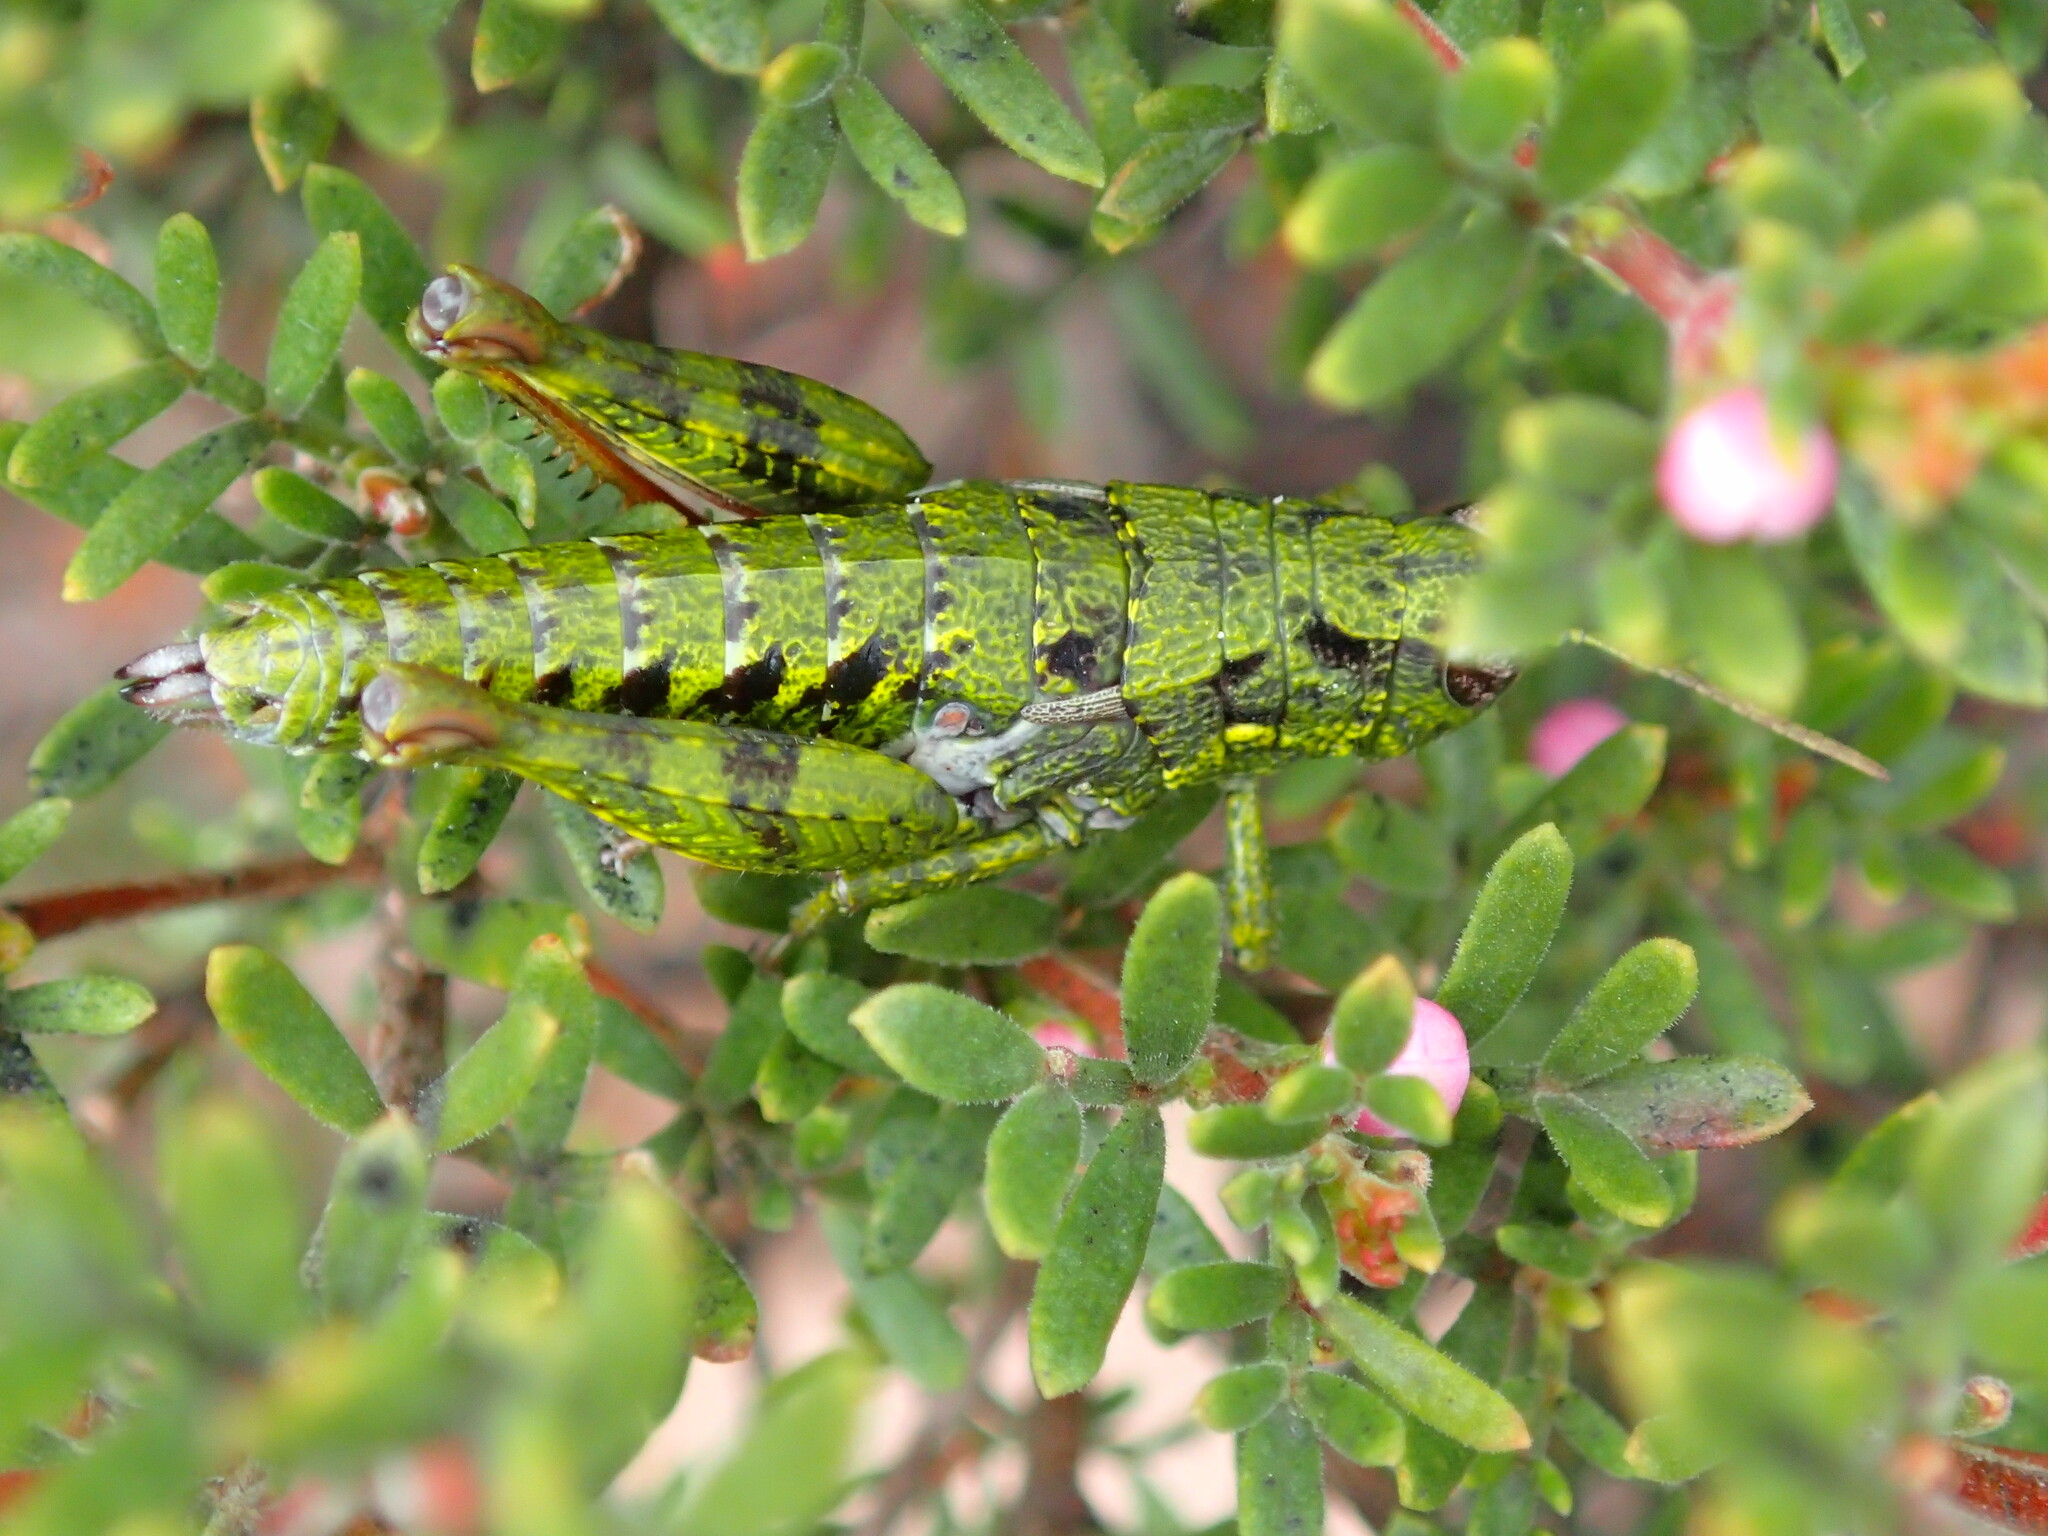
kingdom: Animalia
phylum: Arthropoda
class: Insecta
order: Orthoptera
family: Acrididae
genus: Tasmaniacris
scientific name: Tasmaniacris tasmaniensis
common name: Tasmanian grasshopper
